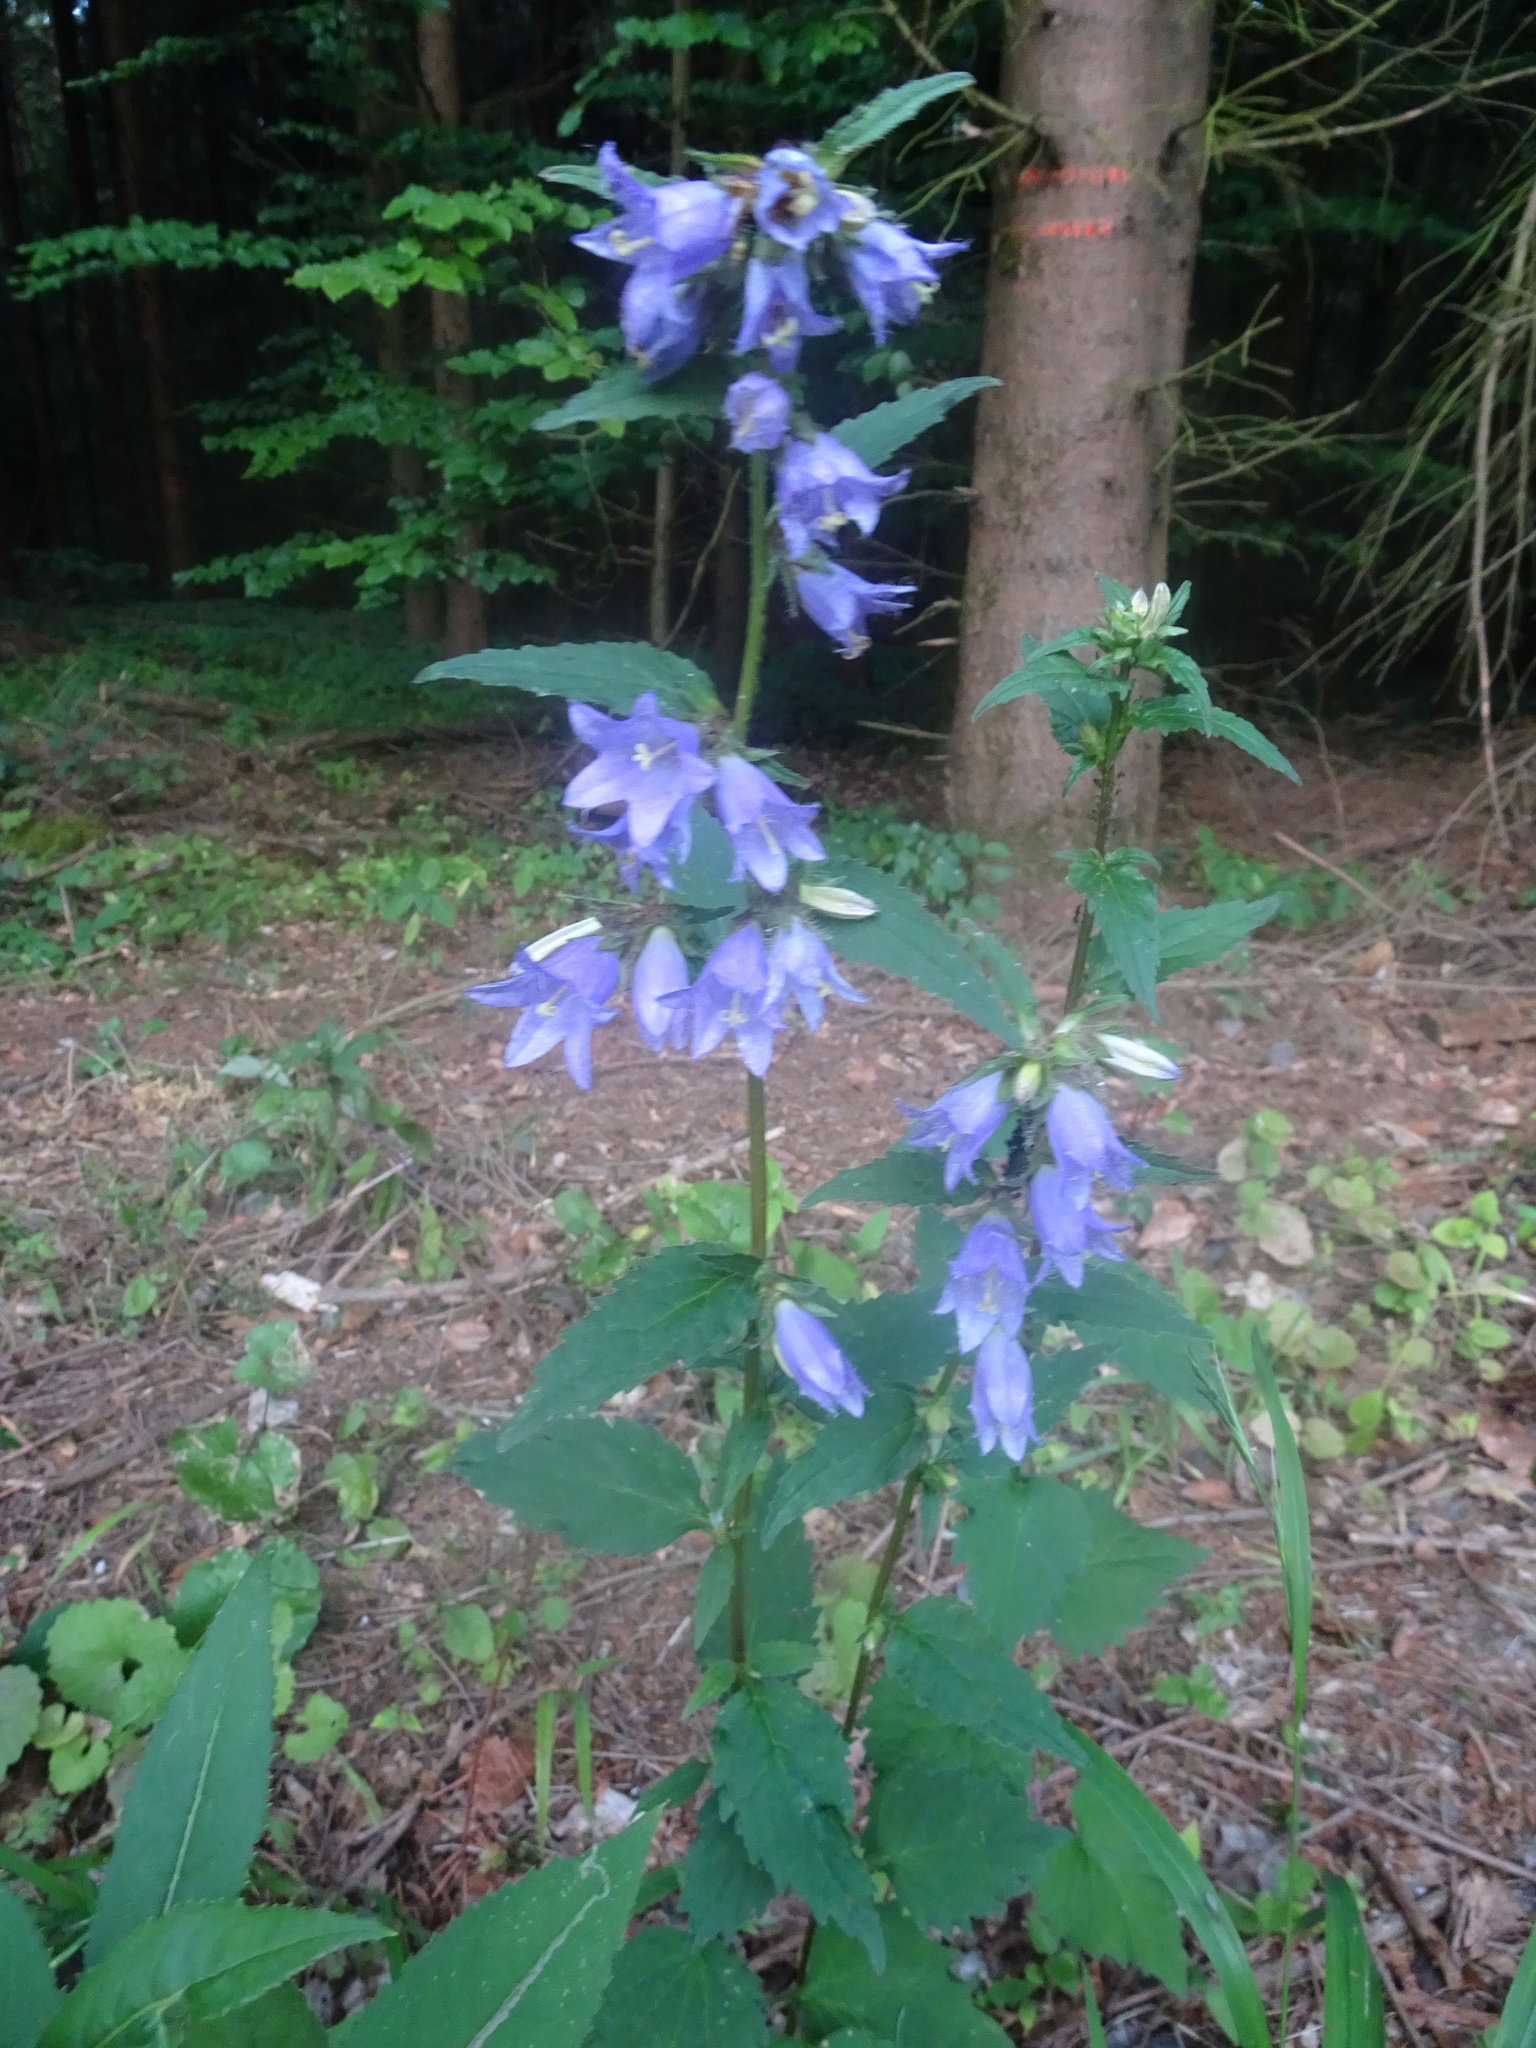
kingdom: Plantae
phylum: Tracheophyta
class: Magnoliopsida
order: Asterales
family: Campanulaceae
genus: Campanula
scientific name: Campanula trachelium
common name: Nettle-leaved bellflower
